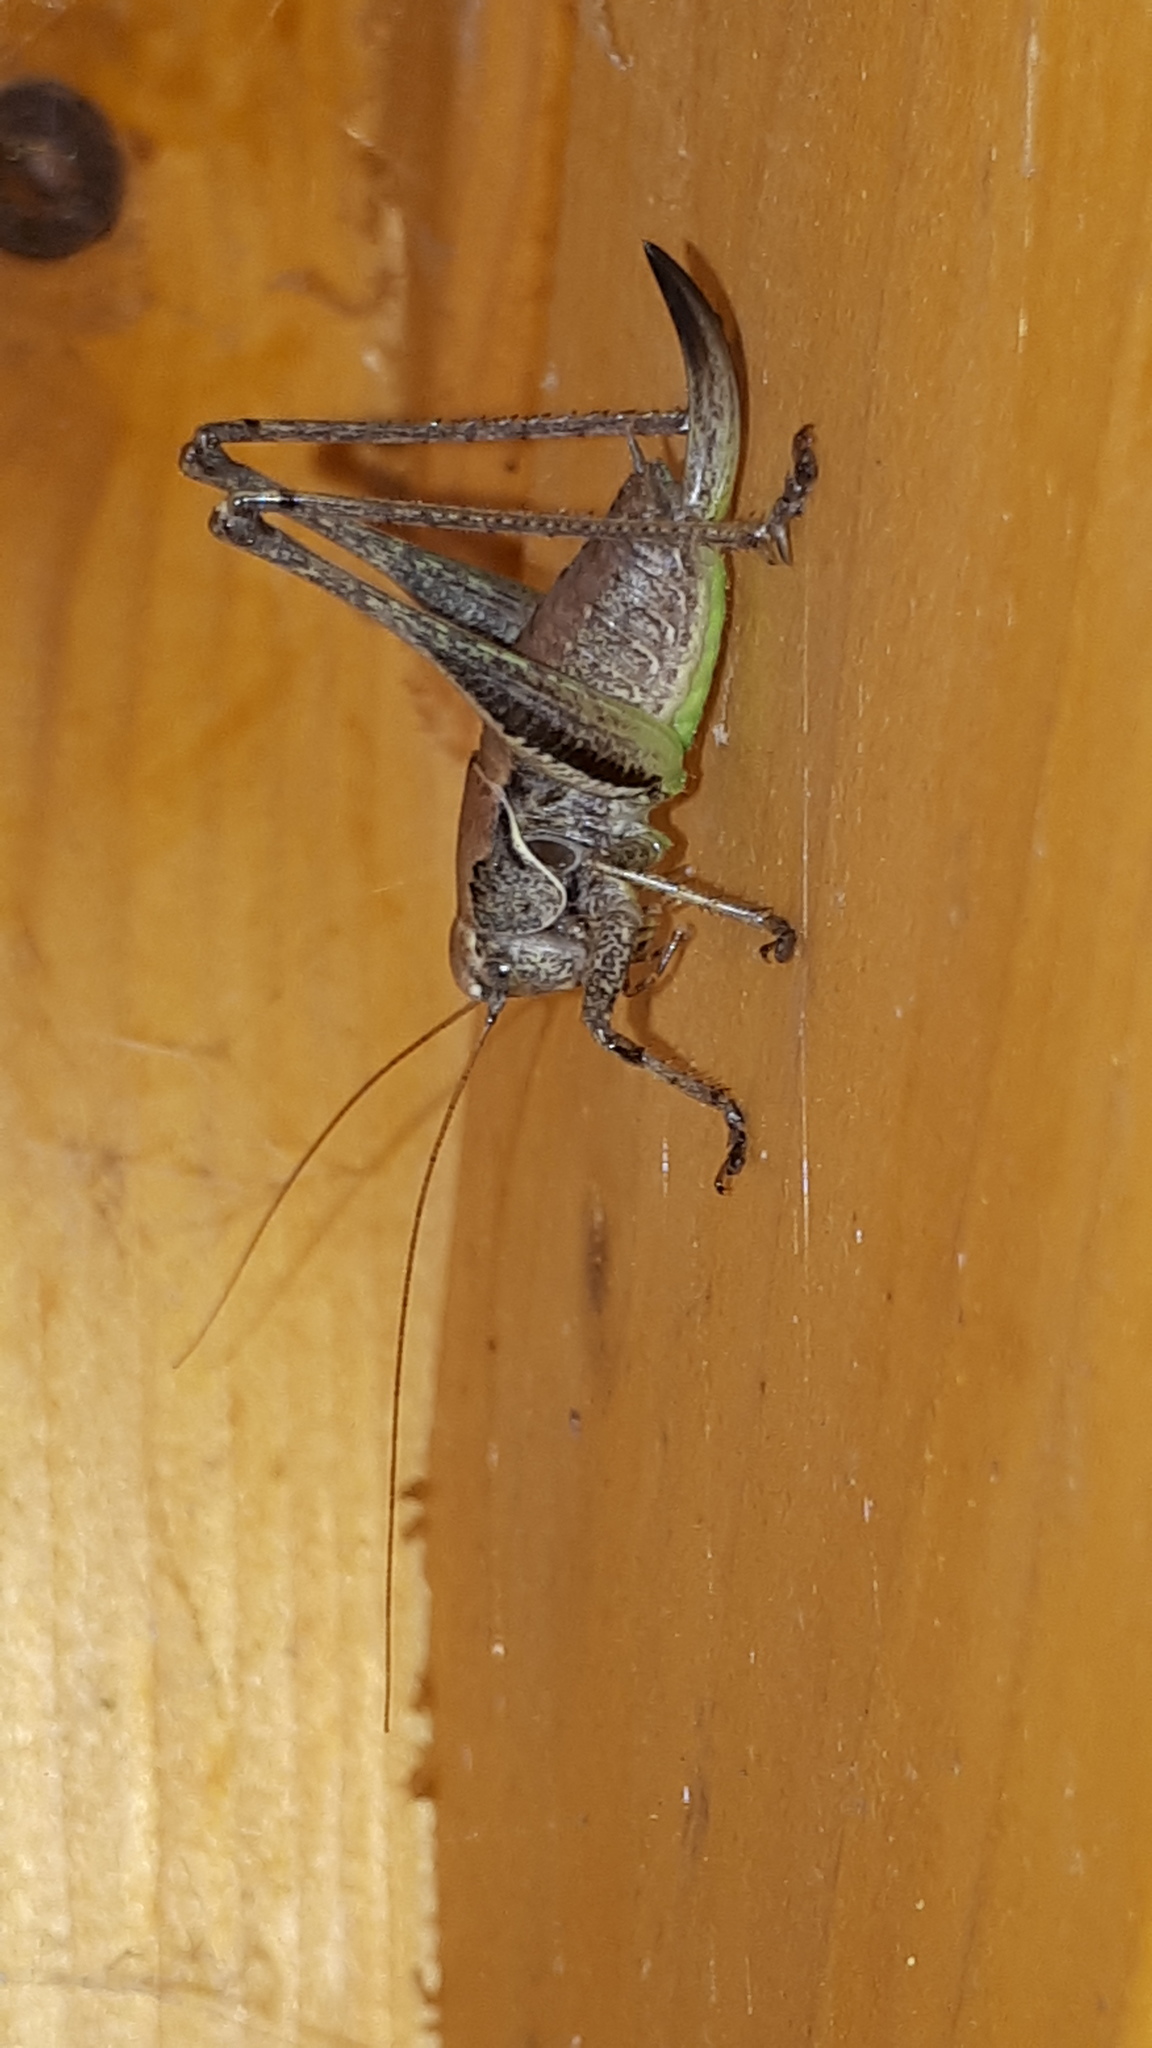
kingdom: Animalia
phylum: Arthropoda
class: Insecta
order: Orthoptera
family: Tettigoniidae
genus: Pholidoptera
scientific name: Pholidoptera griseoaptera
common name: Dark bush-cricket
